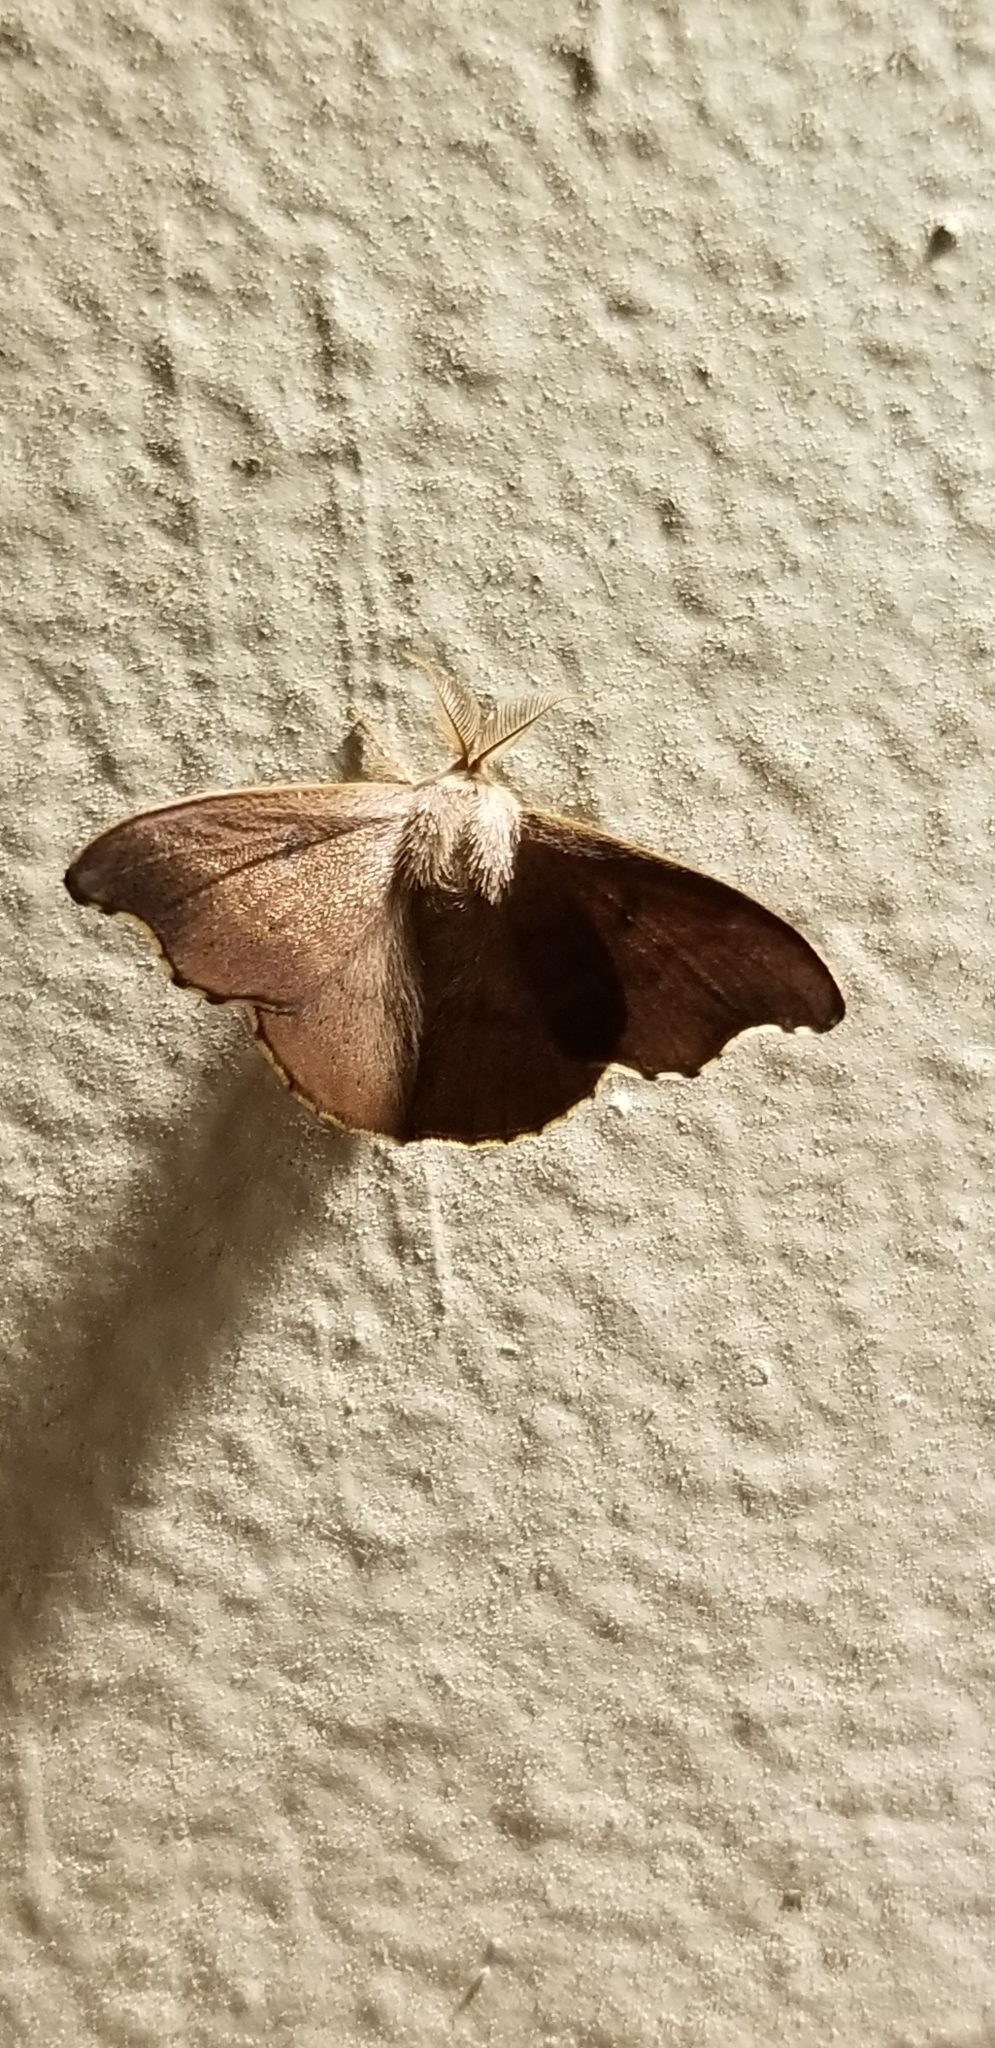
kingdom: Animalia
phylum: Arthropoda
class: Insecta
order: Lepidoptera
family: Mimallonidae
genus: Lacosoma
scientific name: Lacosoma chiridota
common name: Scalloped sack-bearer moth
